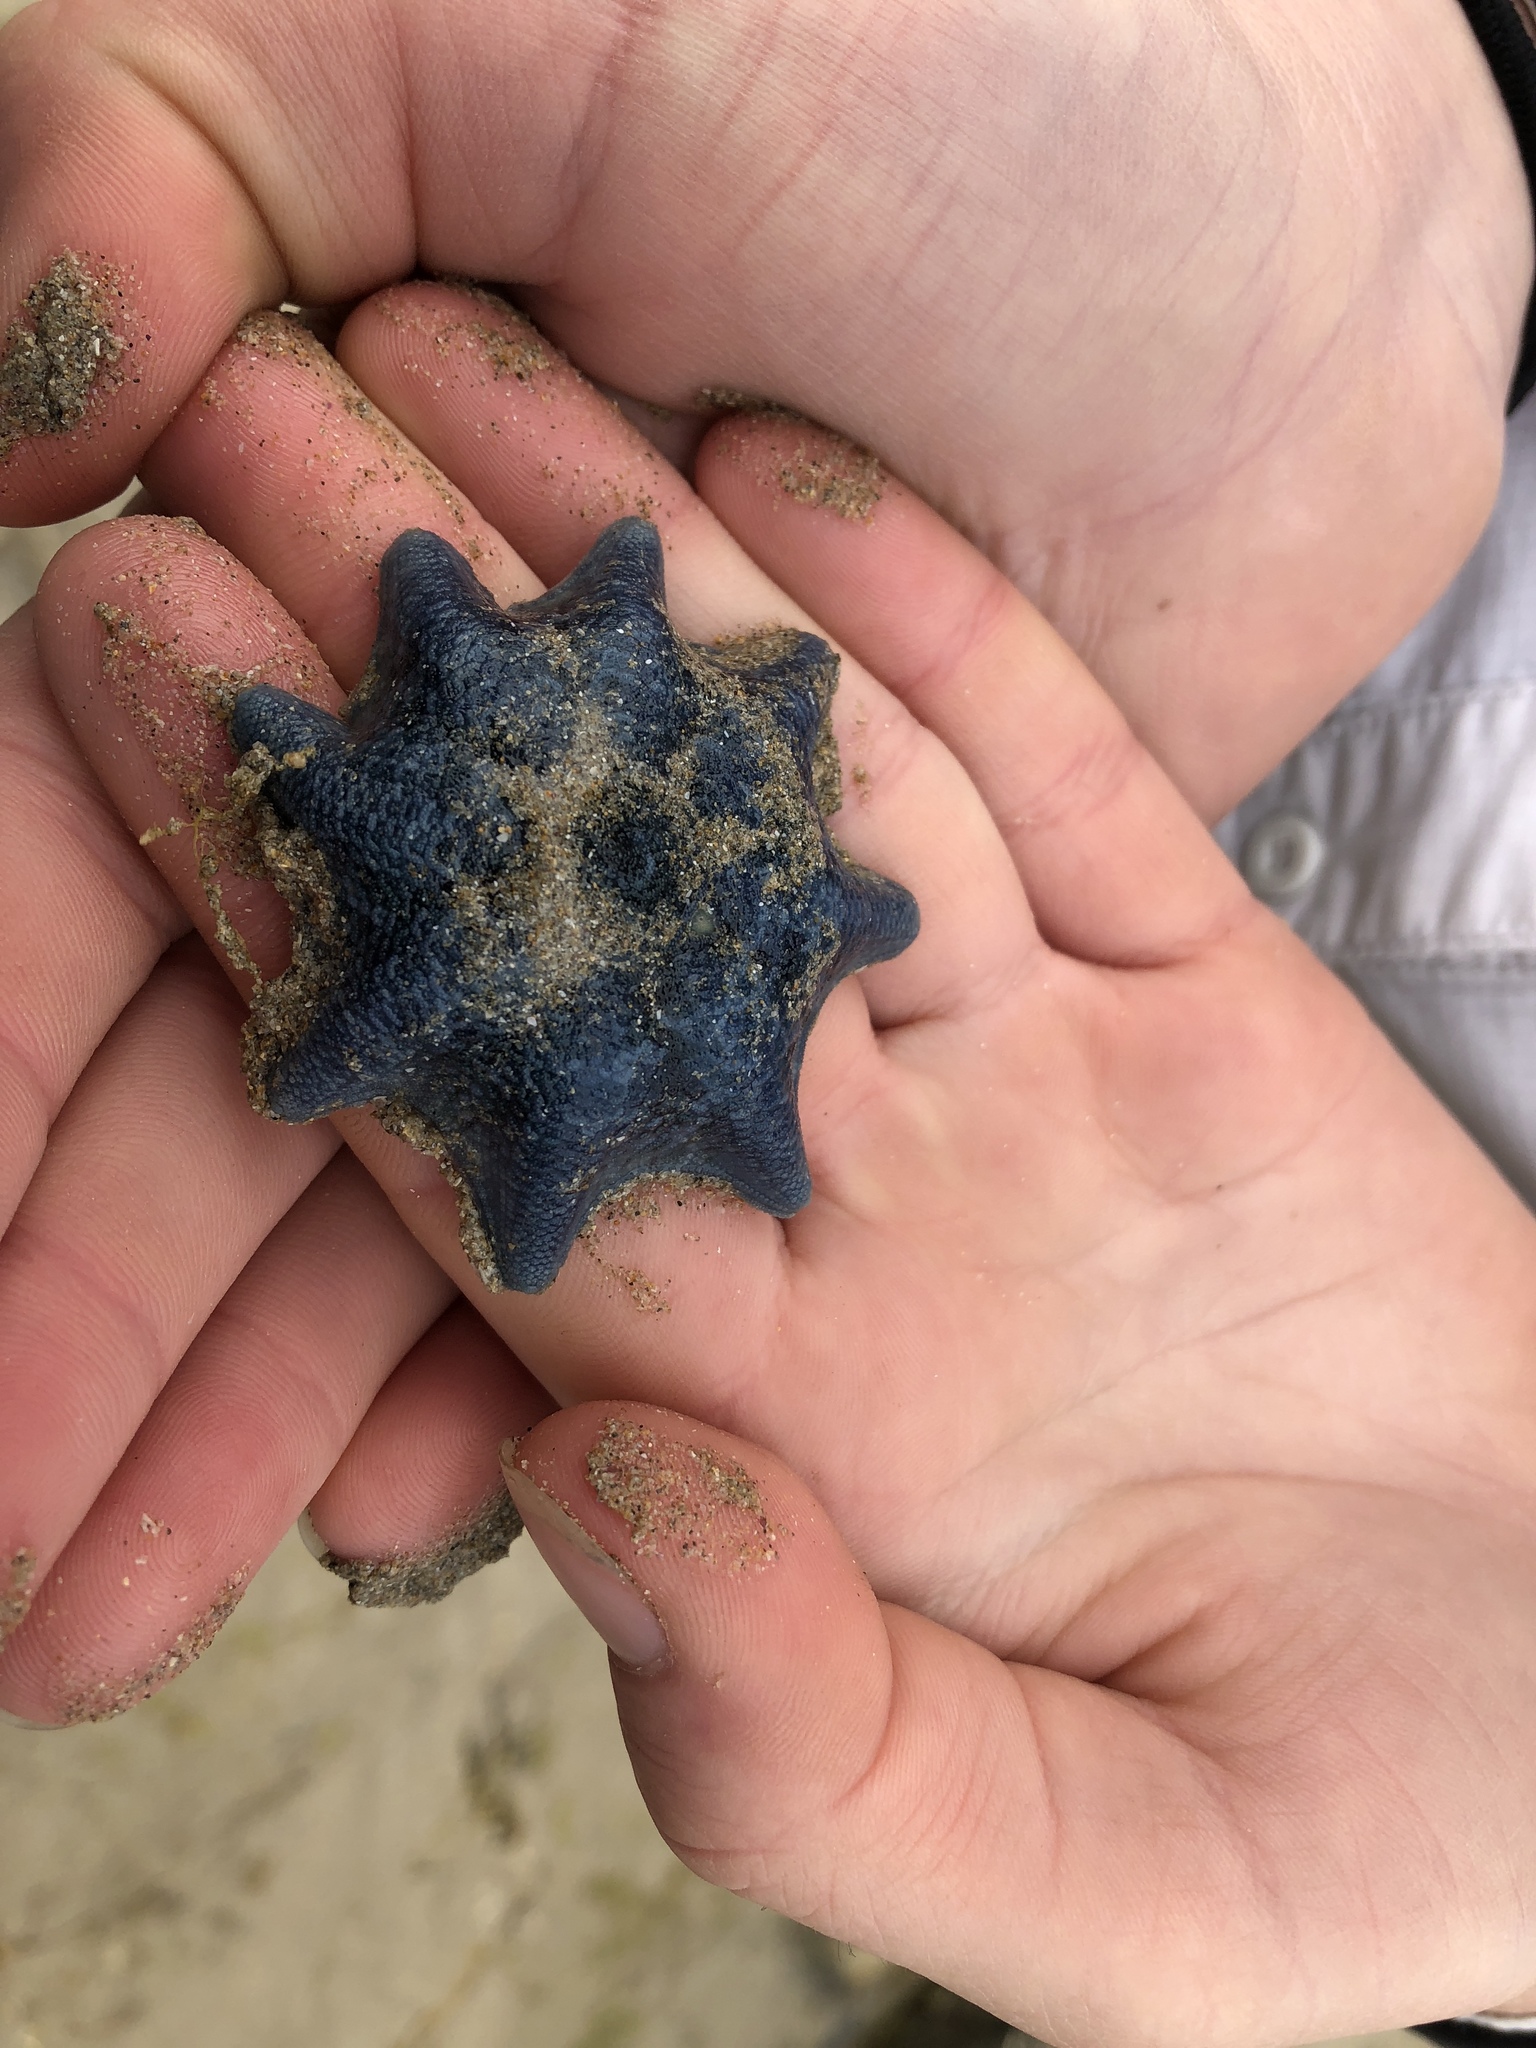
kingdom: Animalia
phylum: Echinodermata
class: Asteroidea
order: Valvatida
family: Asterinidae
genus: Meridiastra
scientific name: Meridiastra calcar
